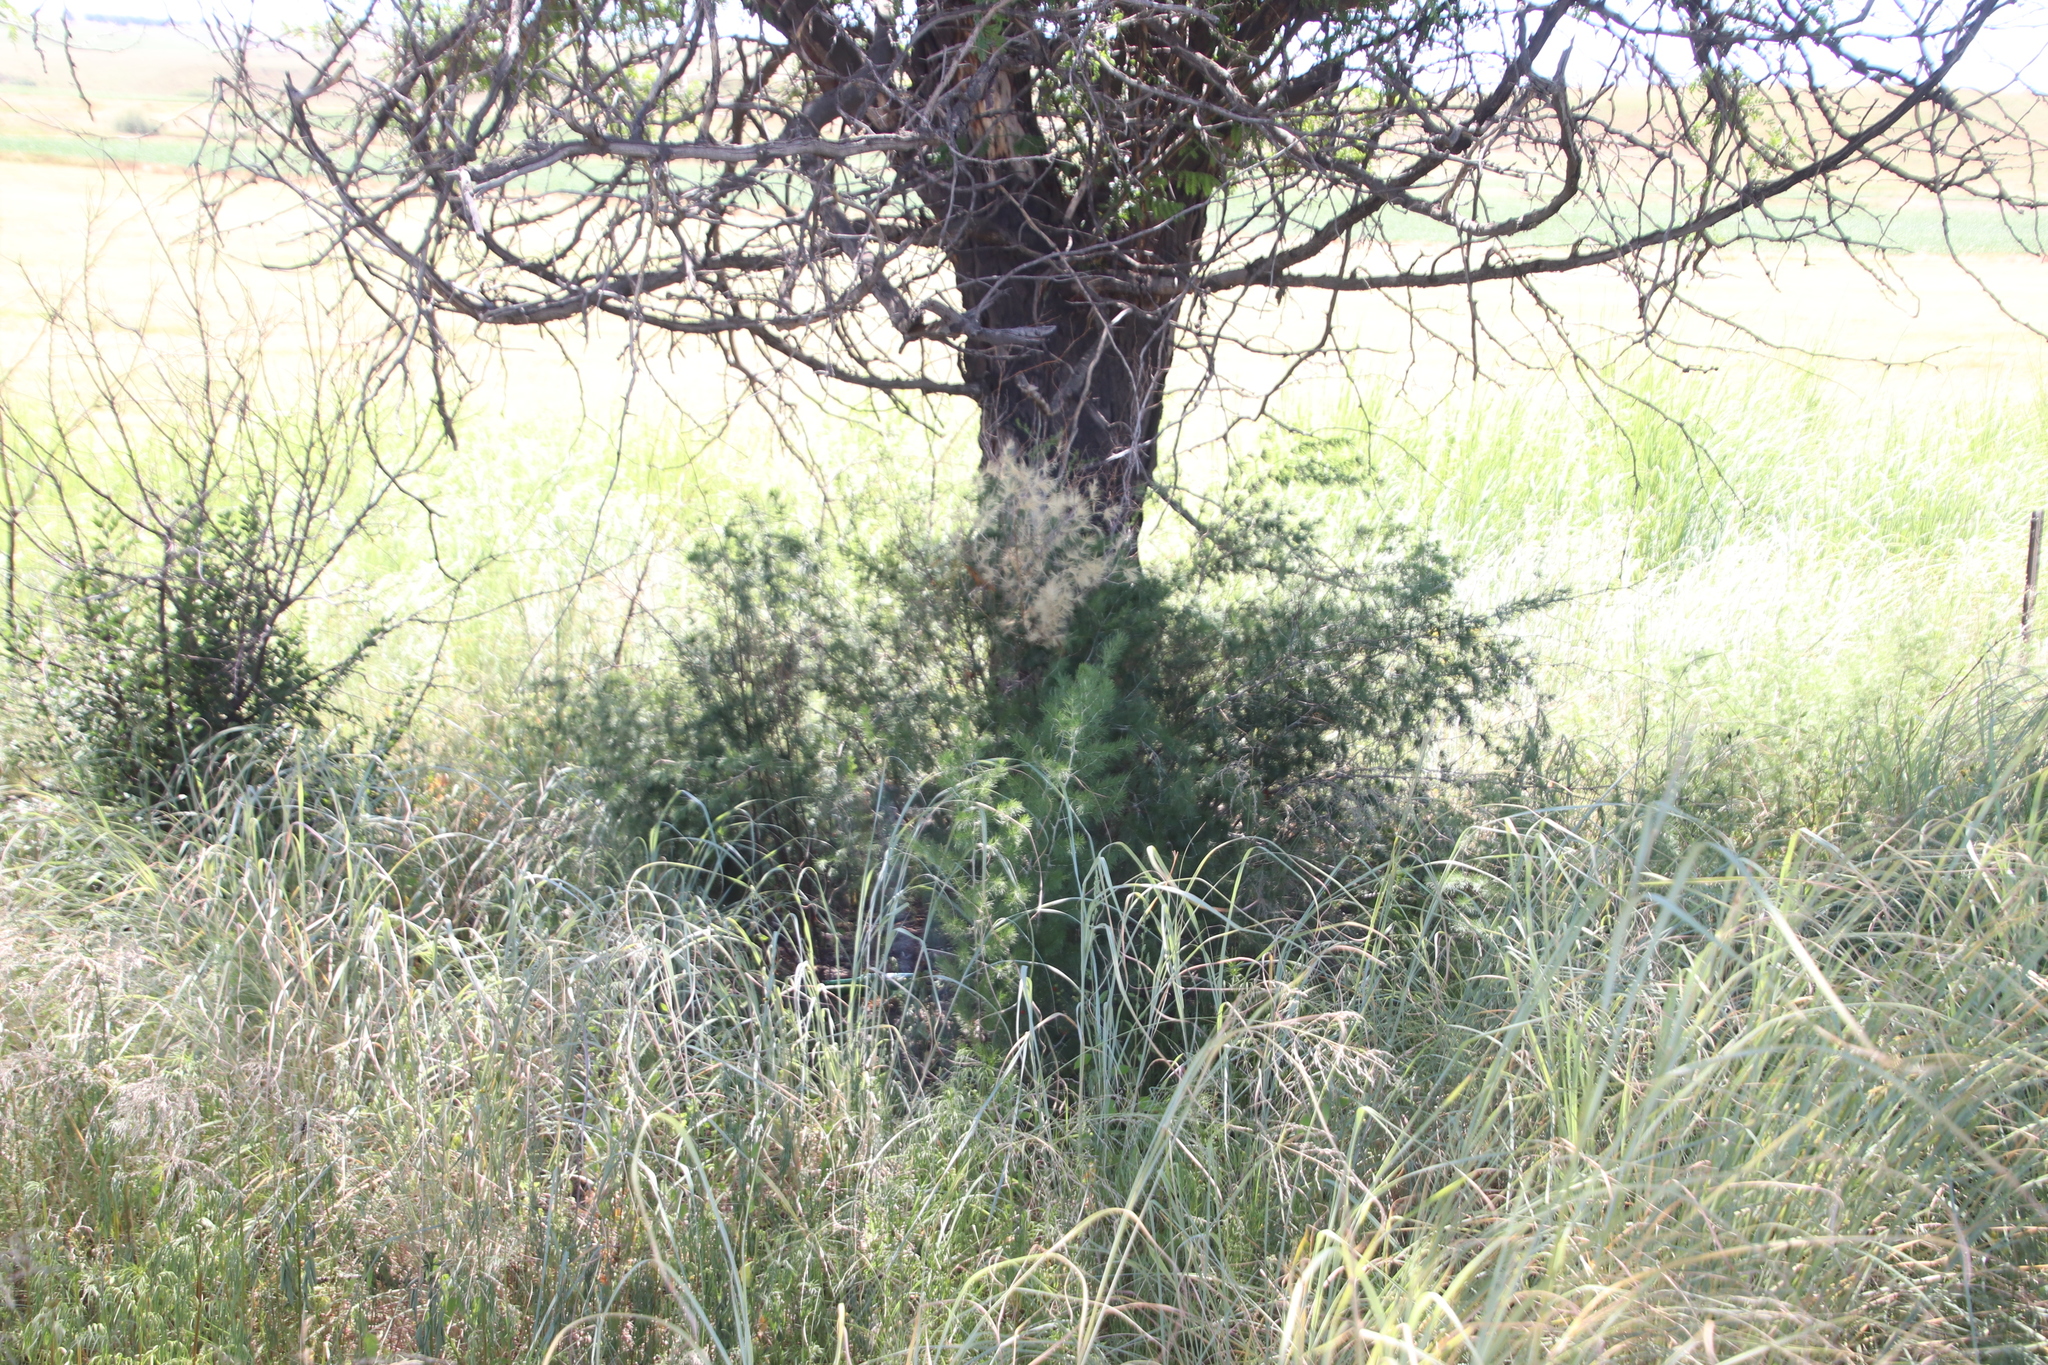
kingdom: Plantae
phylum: Tracheophyta
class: Liliopsida
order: Asparagales
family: Asparagaceae
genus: Asparagus
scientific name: Asparagus laricinus
